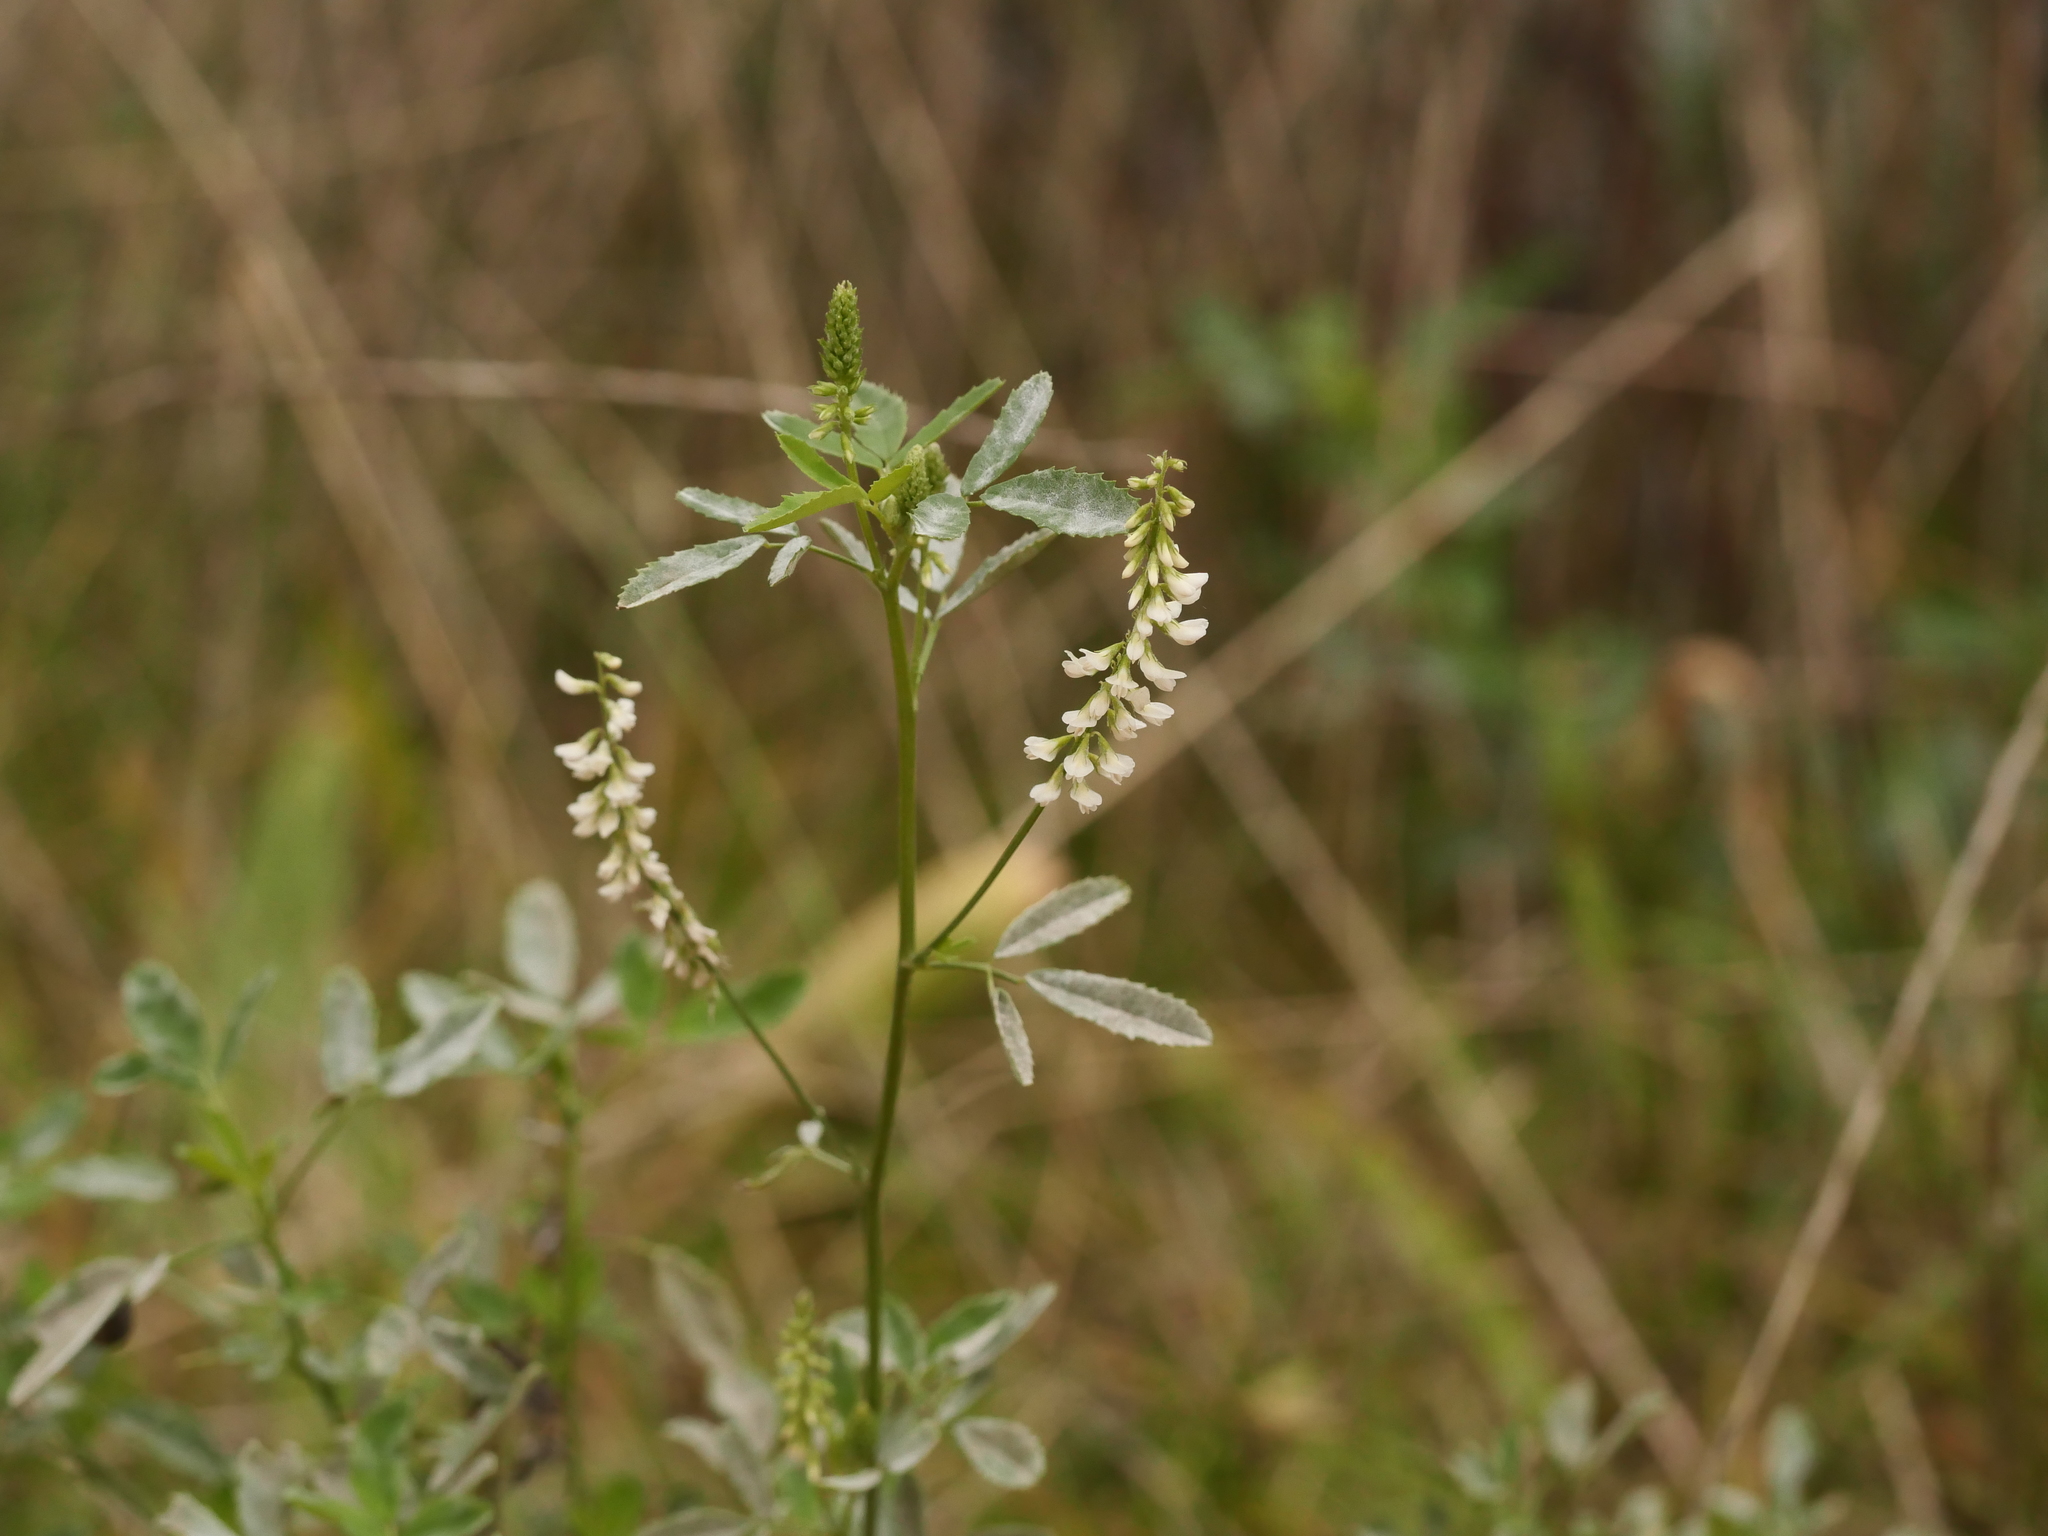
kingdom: Plantae
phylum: Tracheophyta
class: Magnoliopsida
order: Fabales
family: Fabaceae
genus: Melilotus
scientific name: Melilotus albus
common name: White melilot
